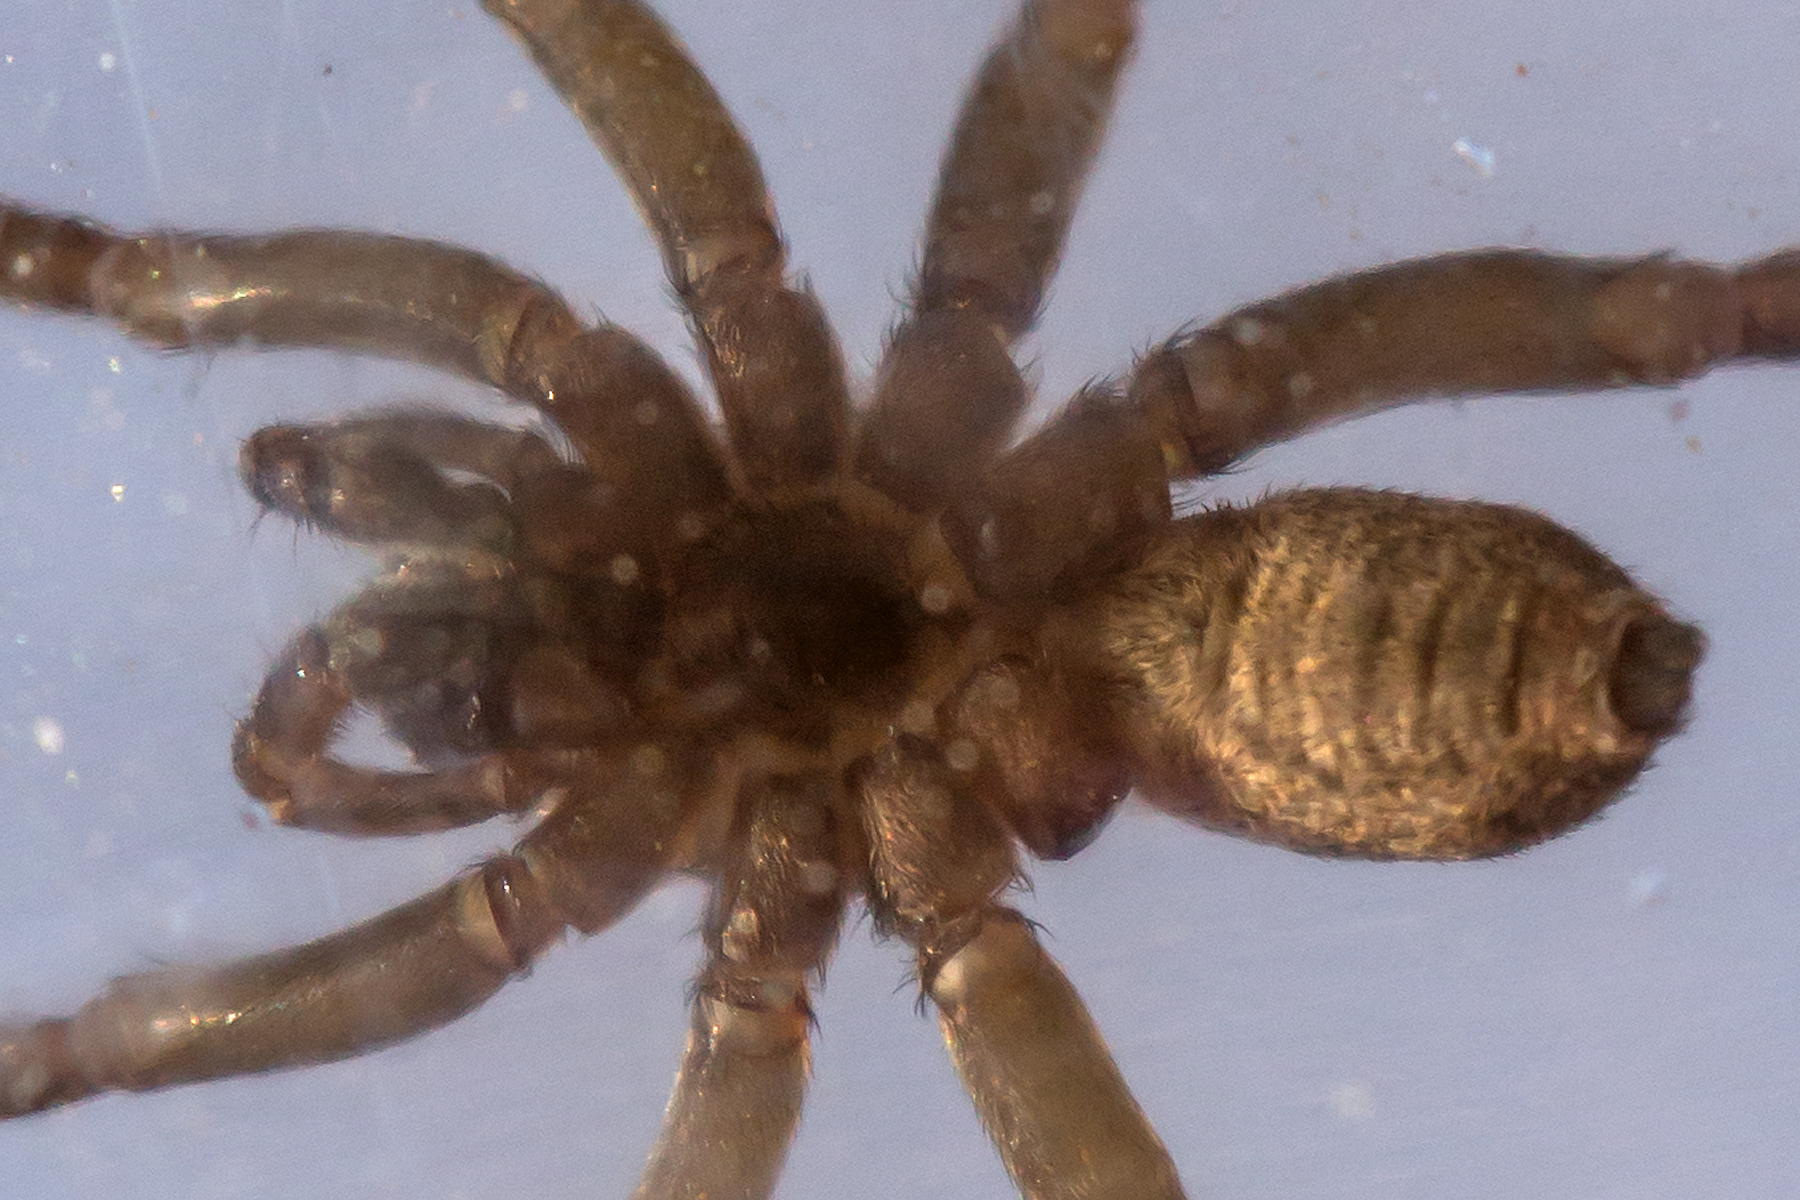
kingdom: Animalia
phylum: Arthropoda
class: Arachnida
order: Araneae
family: Lycosidae
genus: Trochosa
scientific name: Trochosa terricola
